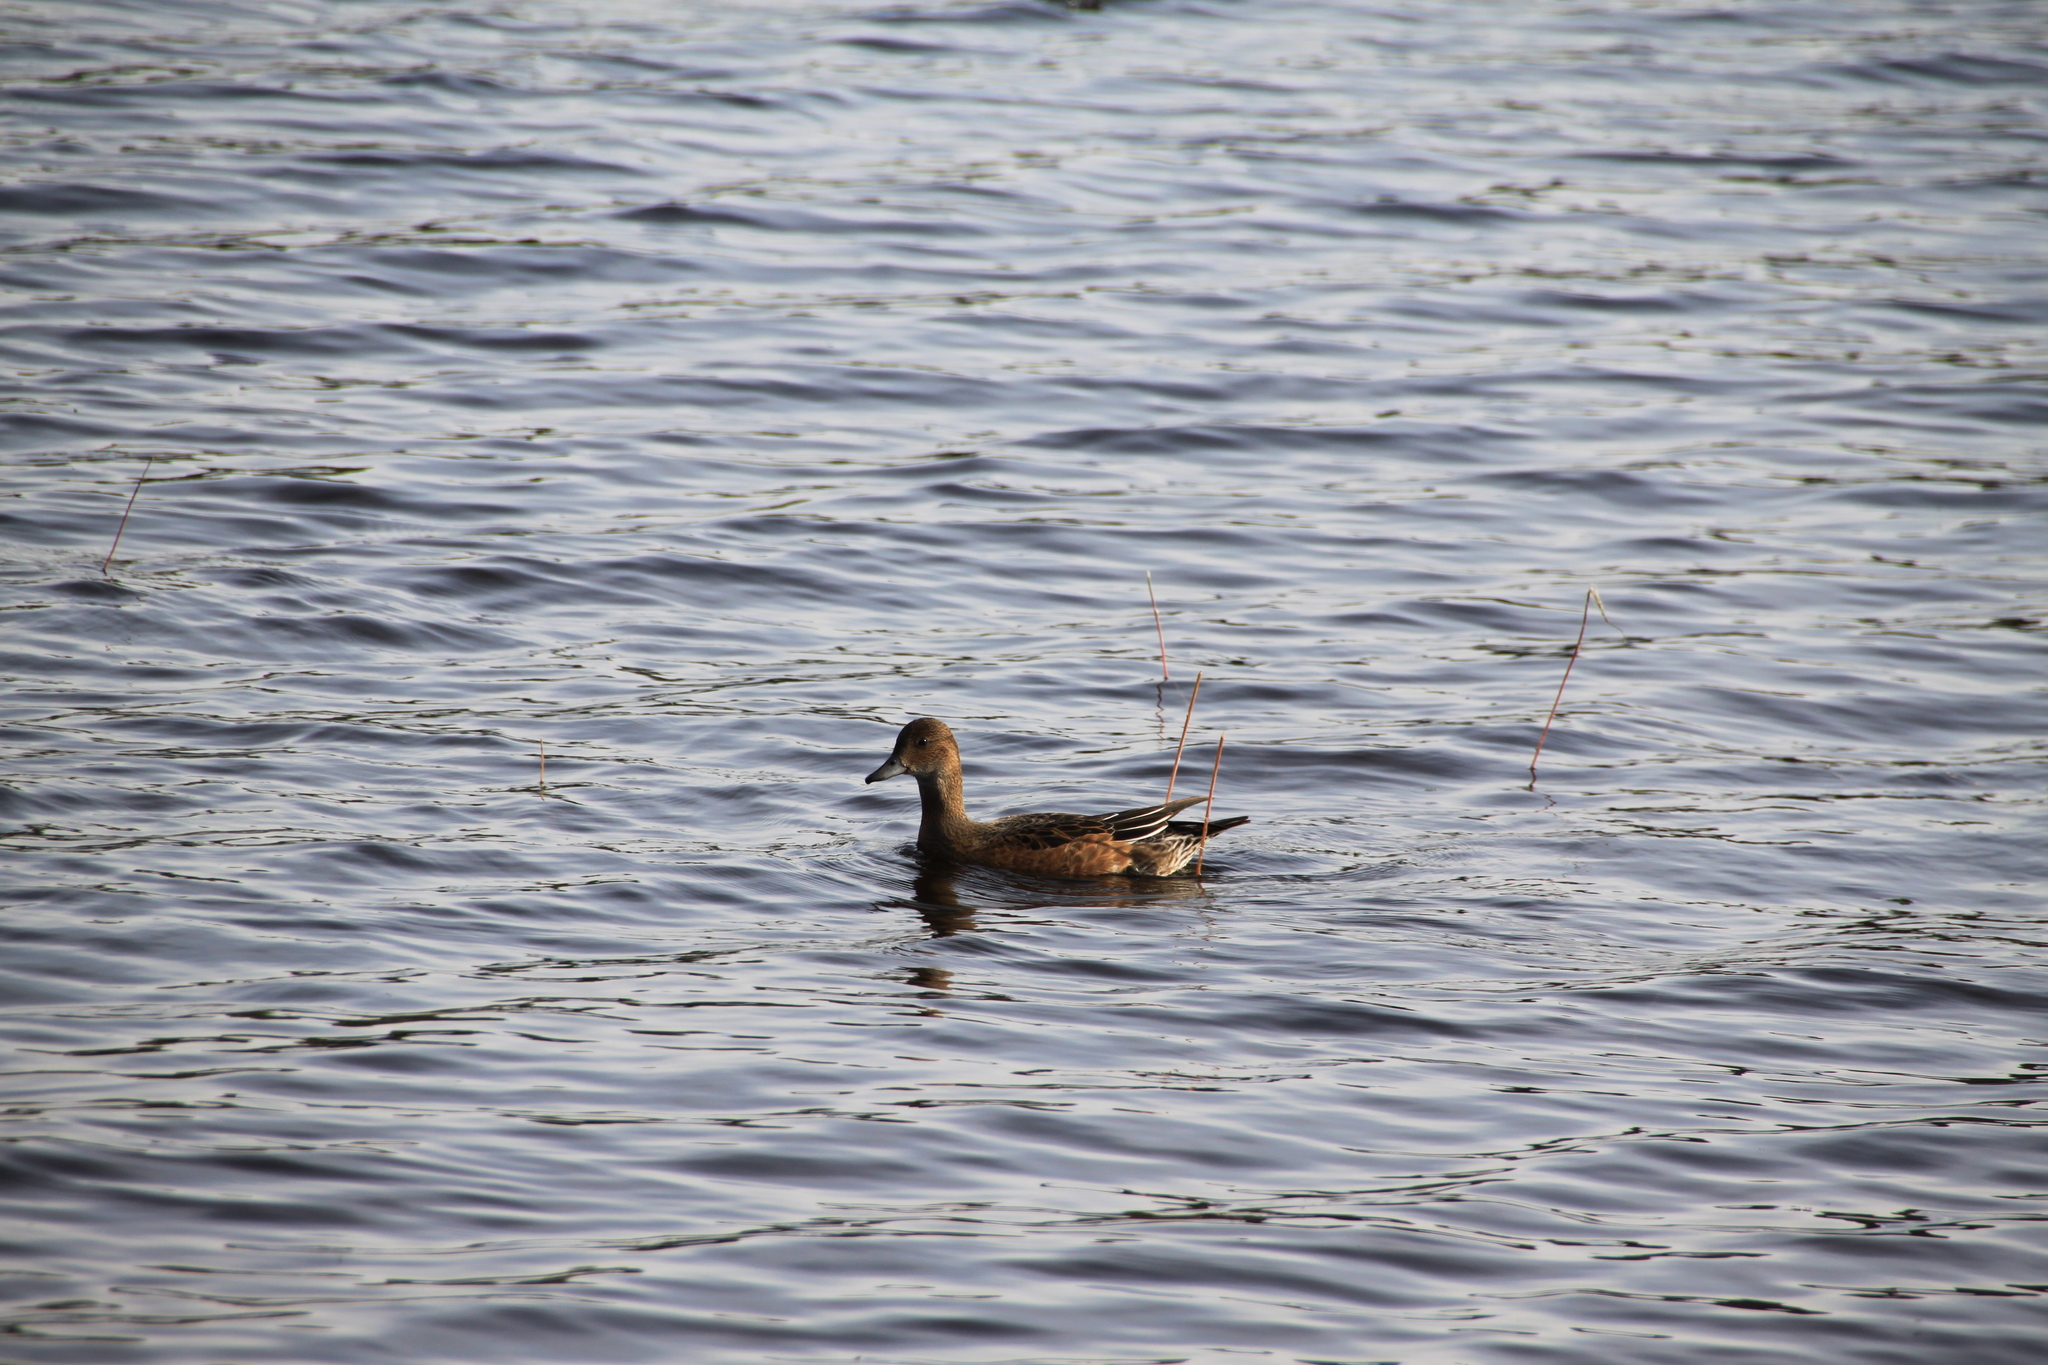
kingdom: Animalia
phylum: Chordata
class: Aves
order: Anseriformes
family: Anatidae
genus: Mareca
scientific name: Mareca penelope
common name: Eurasian wigeon
